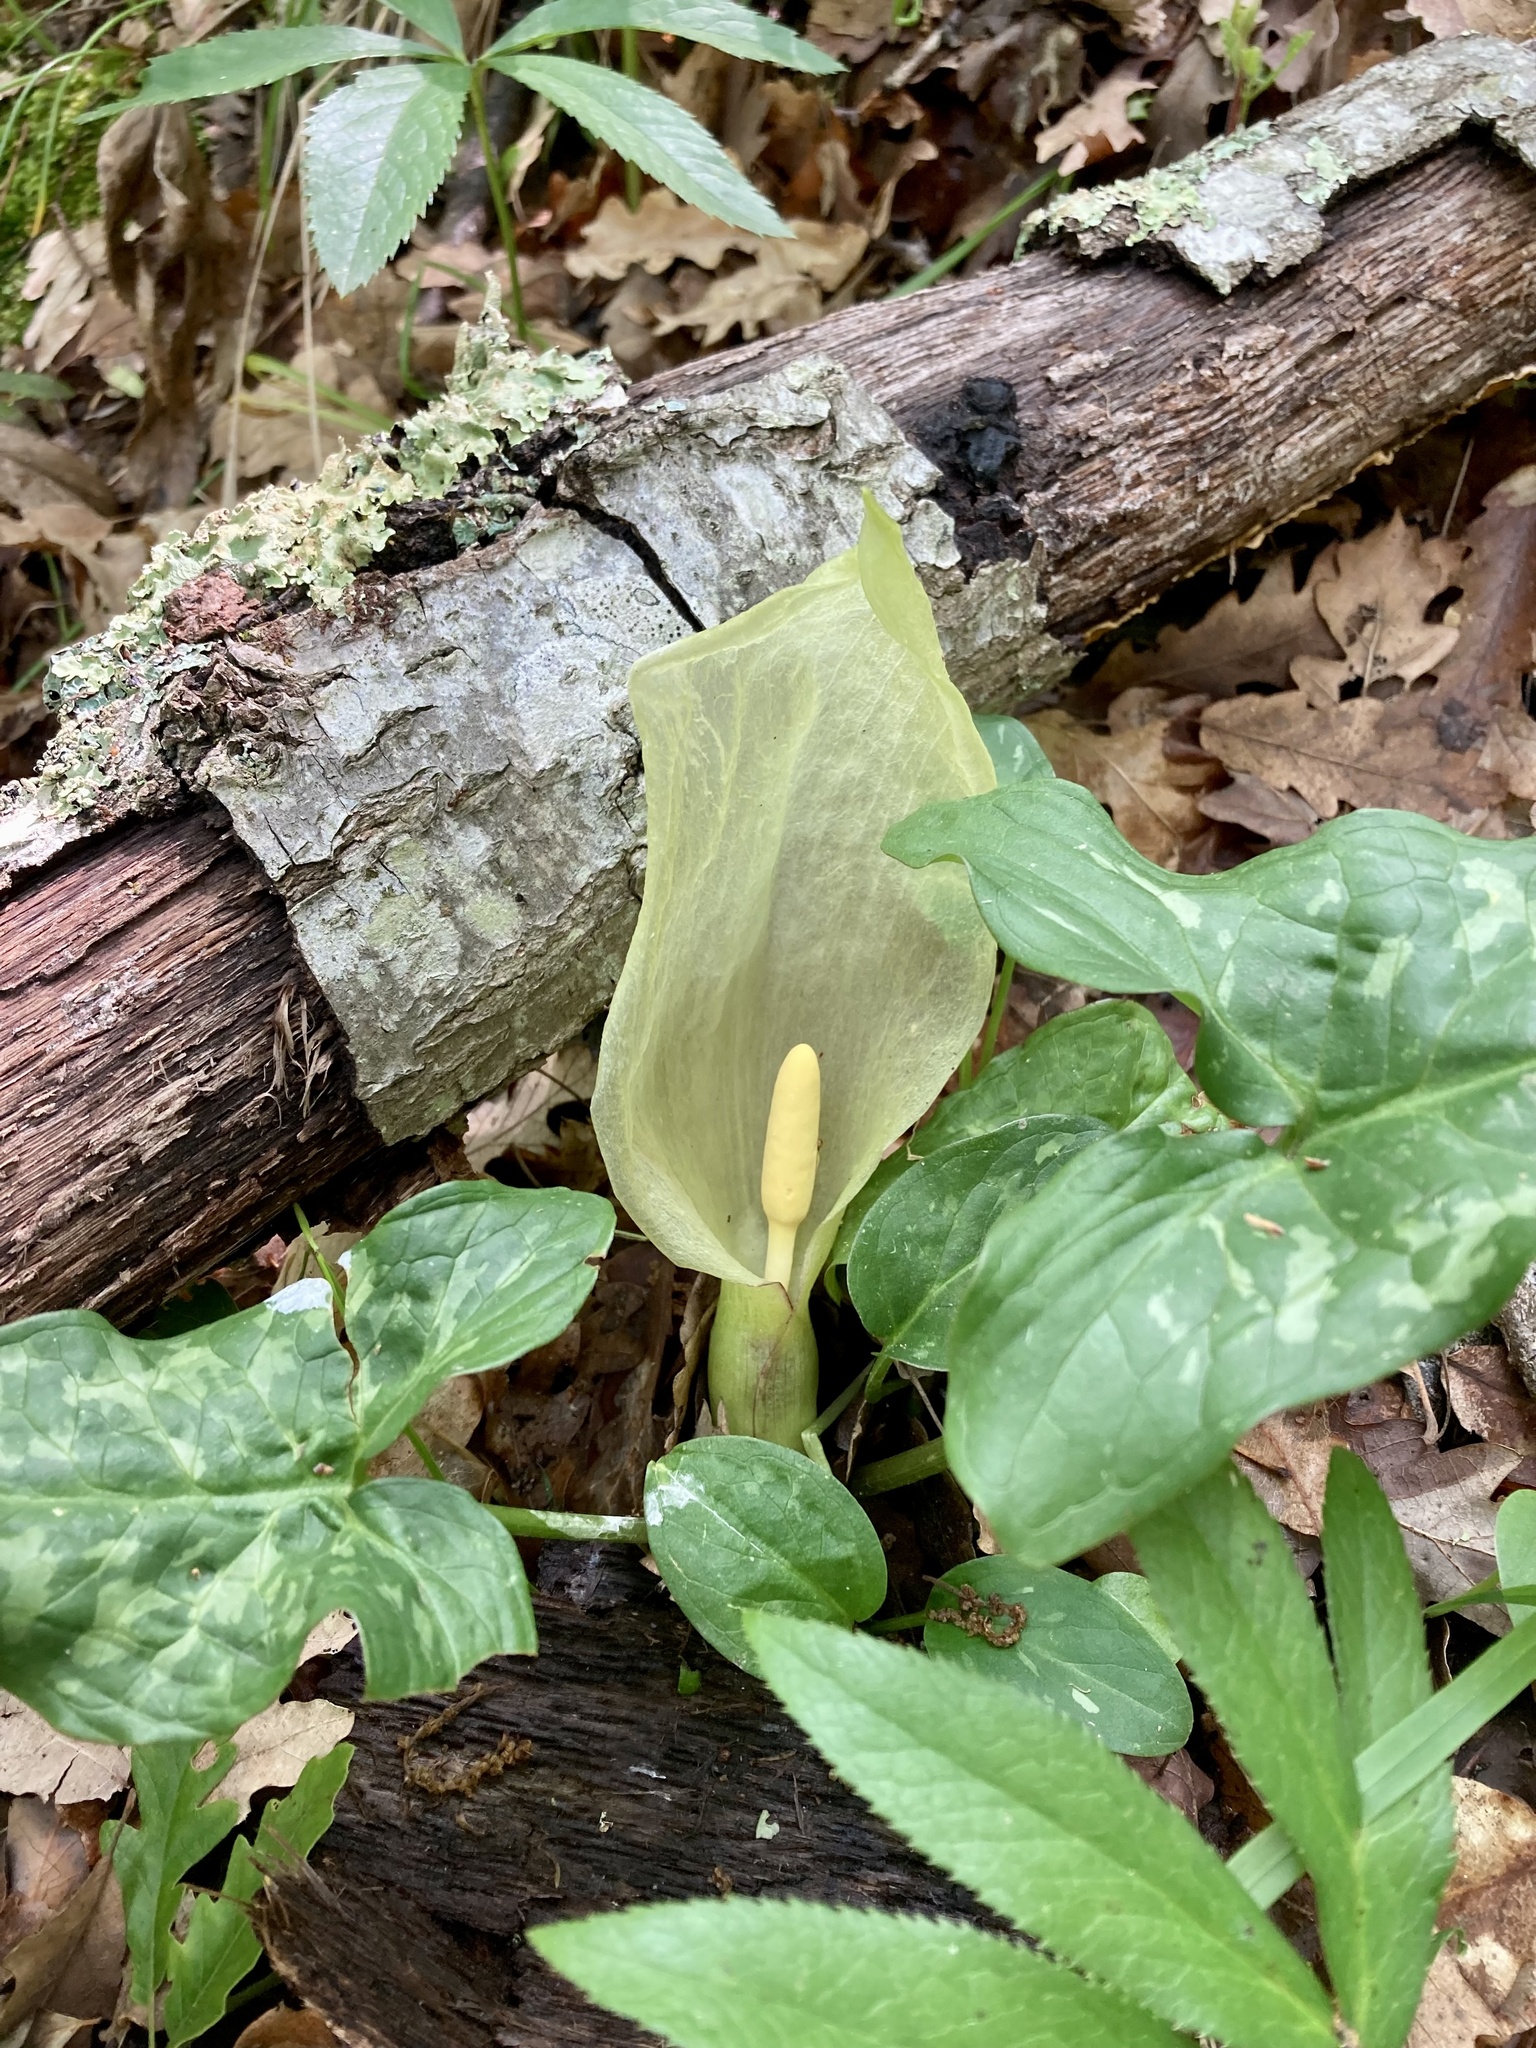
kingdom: Plantae
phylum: Tracheophyta
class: Liliopsida
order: Alismatales
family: Araceae
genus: Arum
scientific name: Arum italicum
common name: Italian lords-and-ladies
